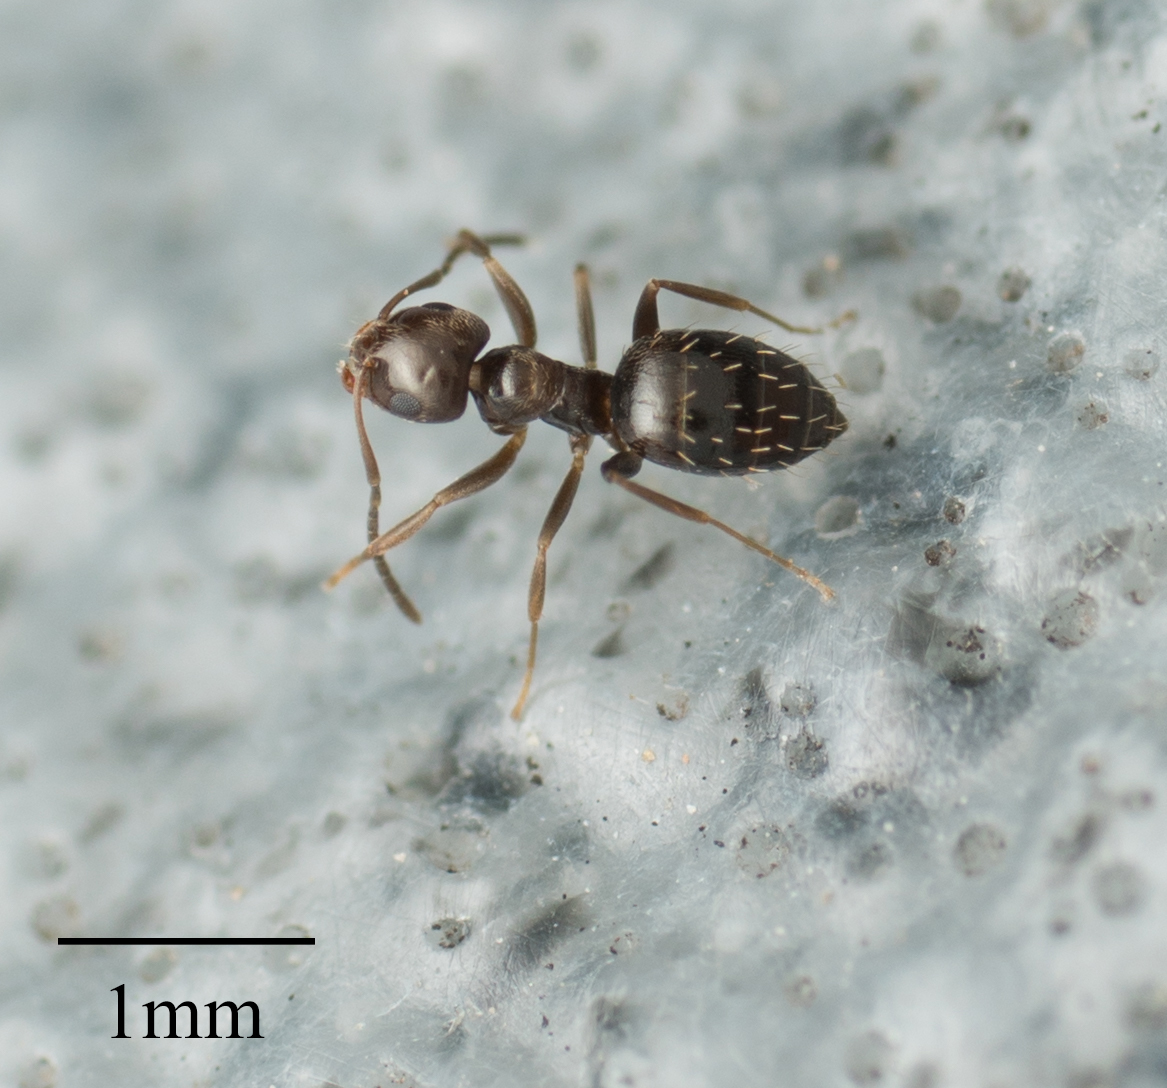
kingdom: Animalia
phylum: Arthropoda
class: Insecta
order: Hymenoptera
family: Formicidae
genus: Brachymyrmex
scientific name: Brachymyrmex patagonicus
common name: Dark rover ant
